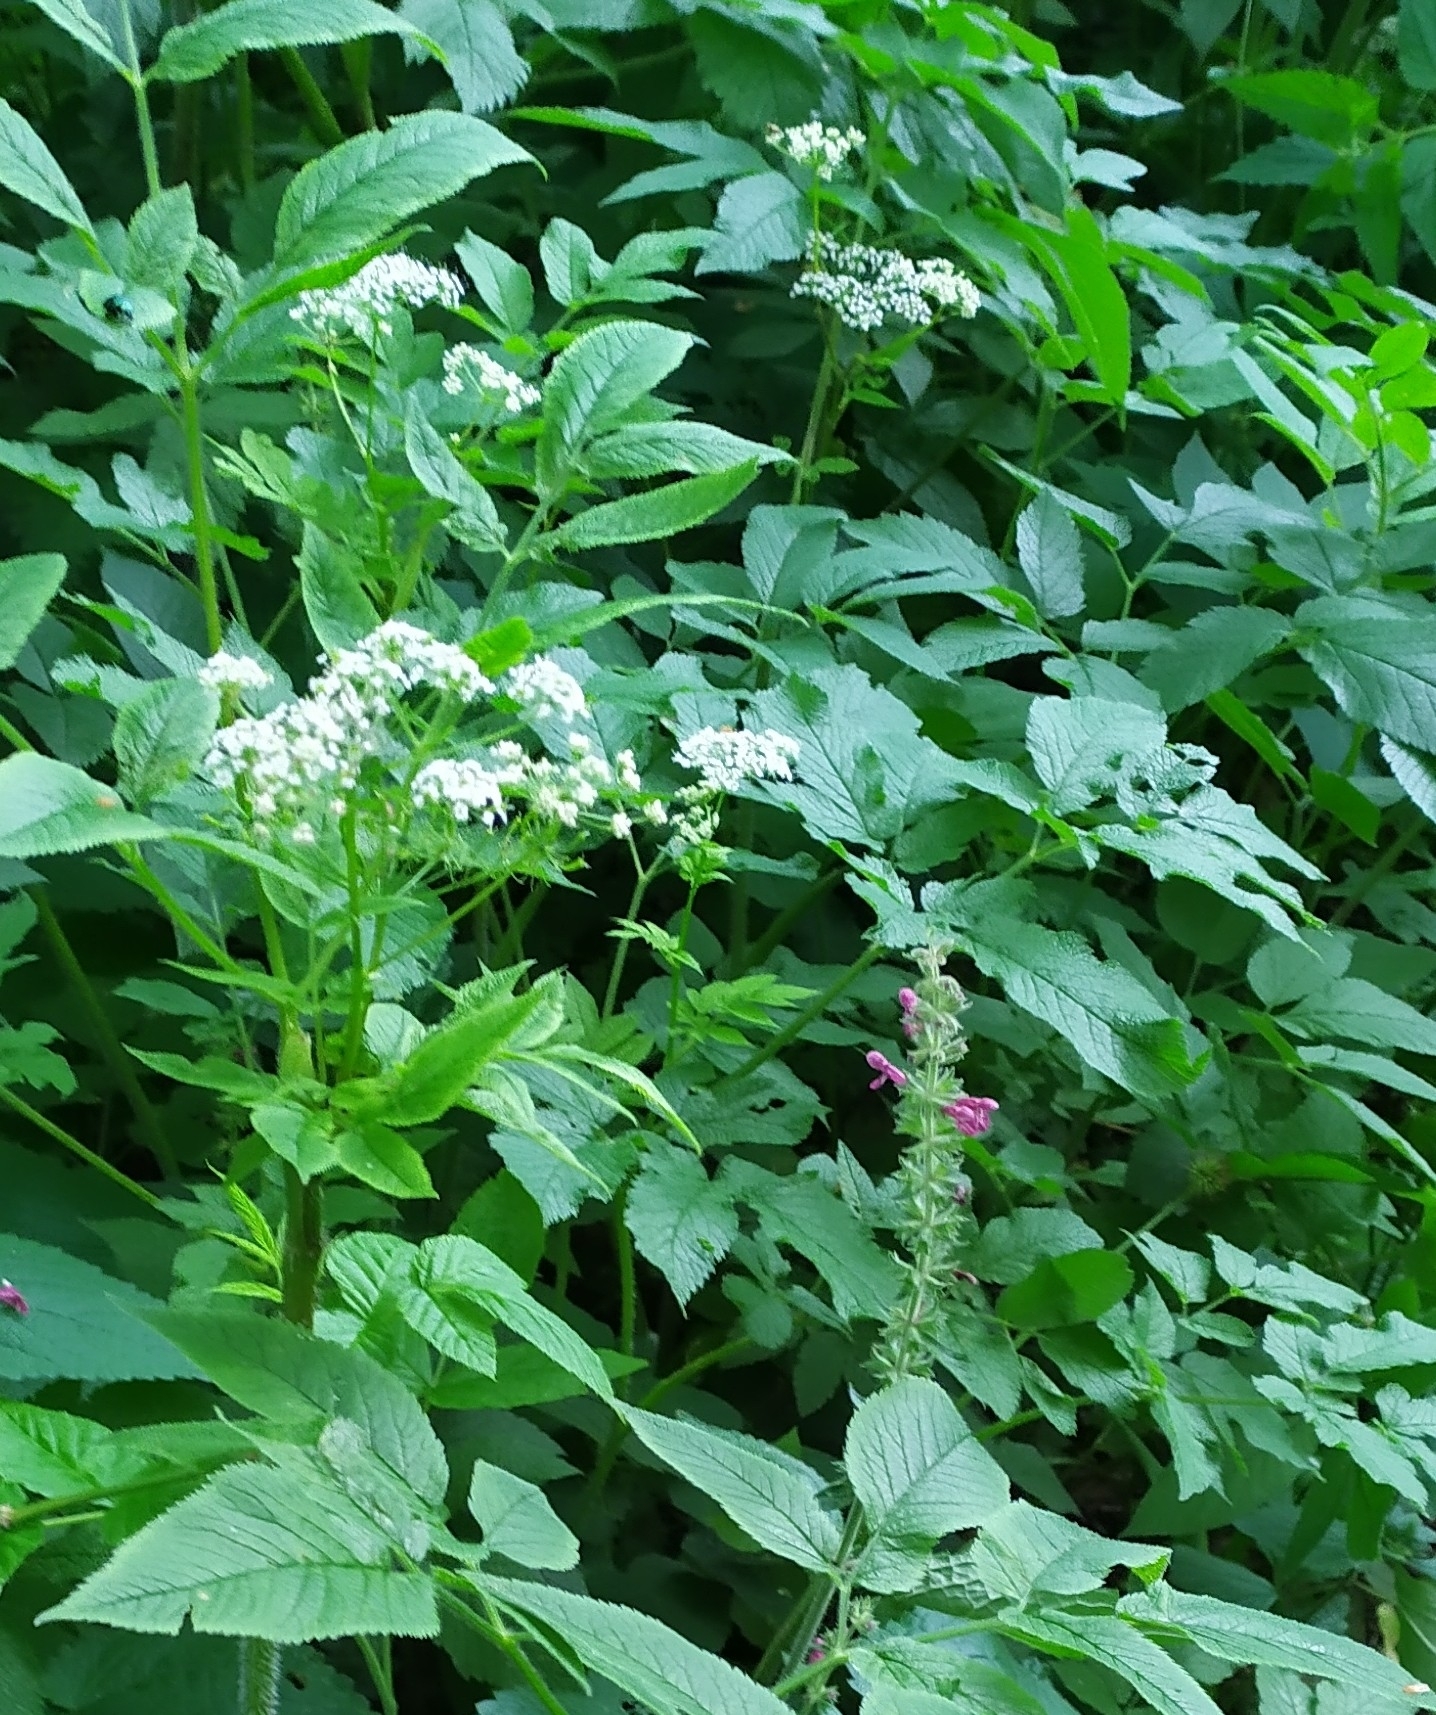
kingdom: Plantae
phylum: Tracheophyta
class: Magnoliopsida
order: Apiales
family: Apiaceae
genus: Chaerophyllum
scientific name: Chaerophyllum aromaticum
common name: Broadleaf chervil
